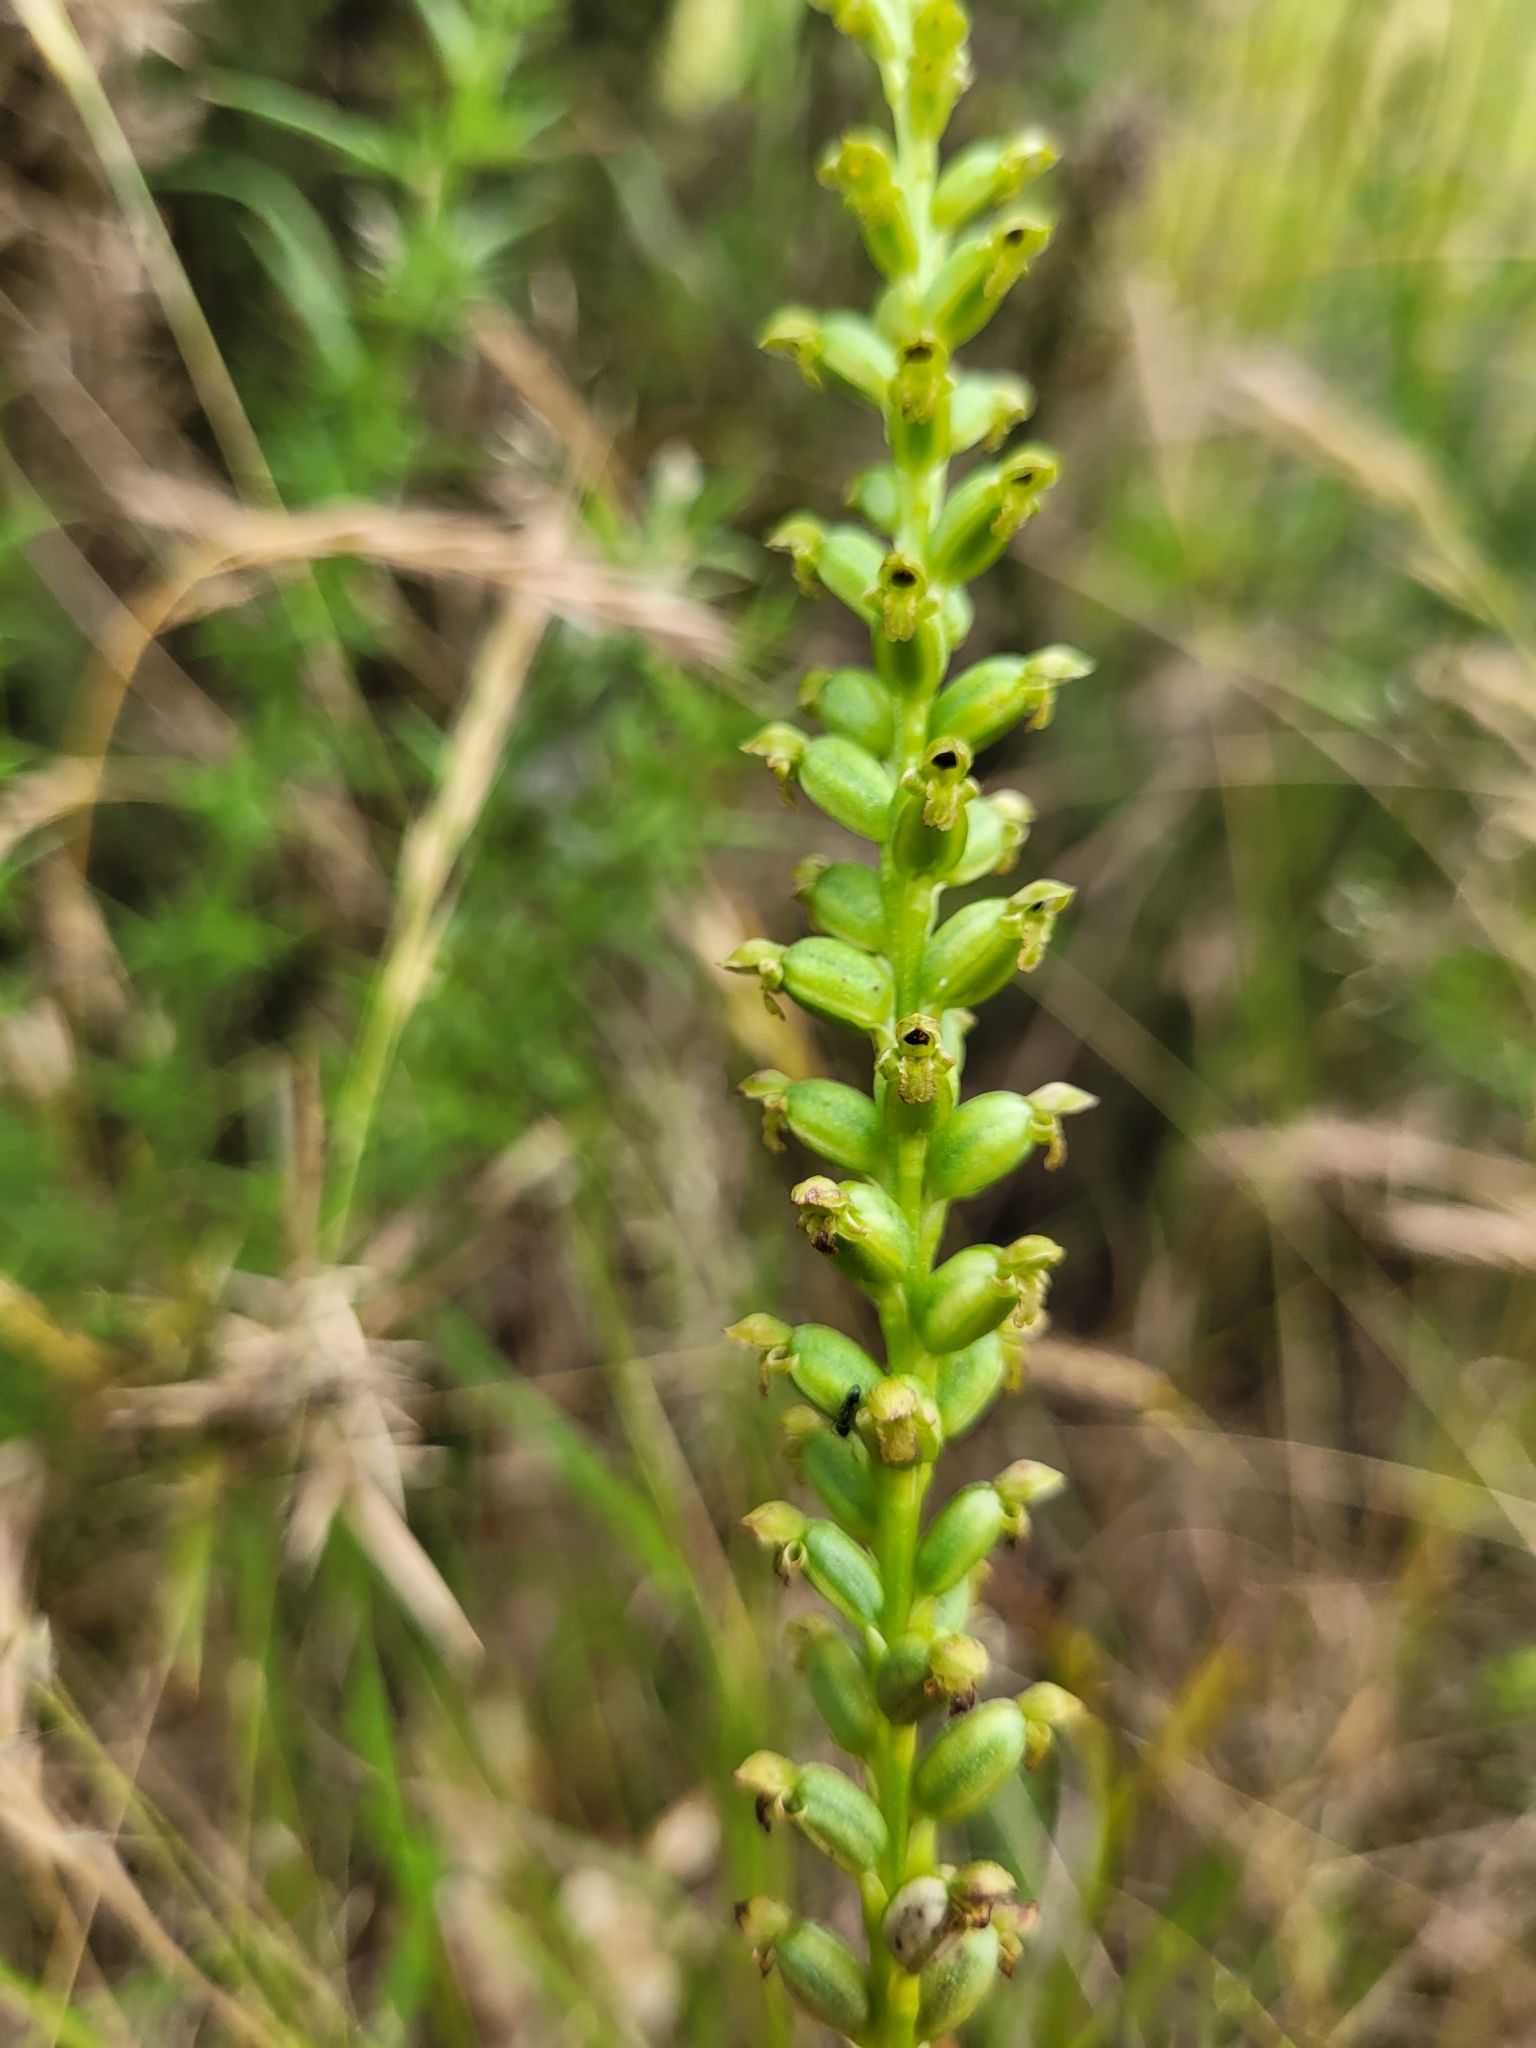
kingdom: Plantae
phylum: Tracheophyta
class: Liliopsida
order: Asparagales
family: Orchidaceae
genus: Microtis
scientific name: Microtis unifolia
